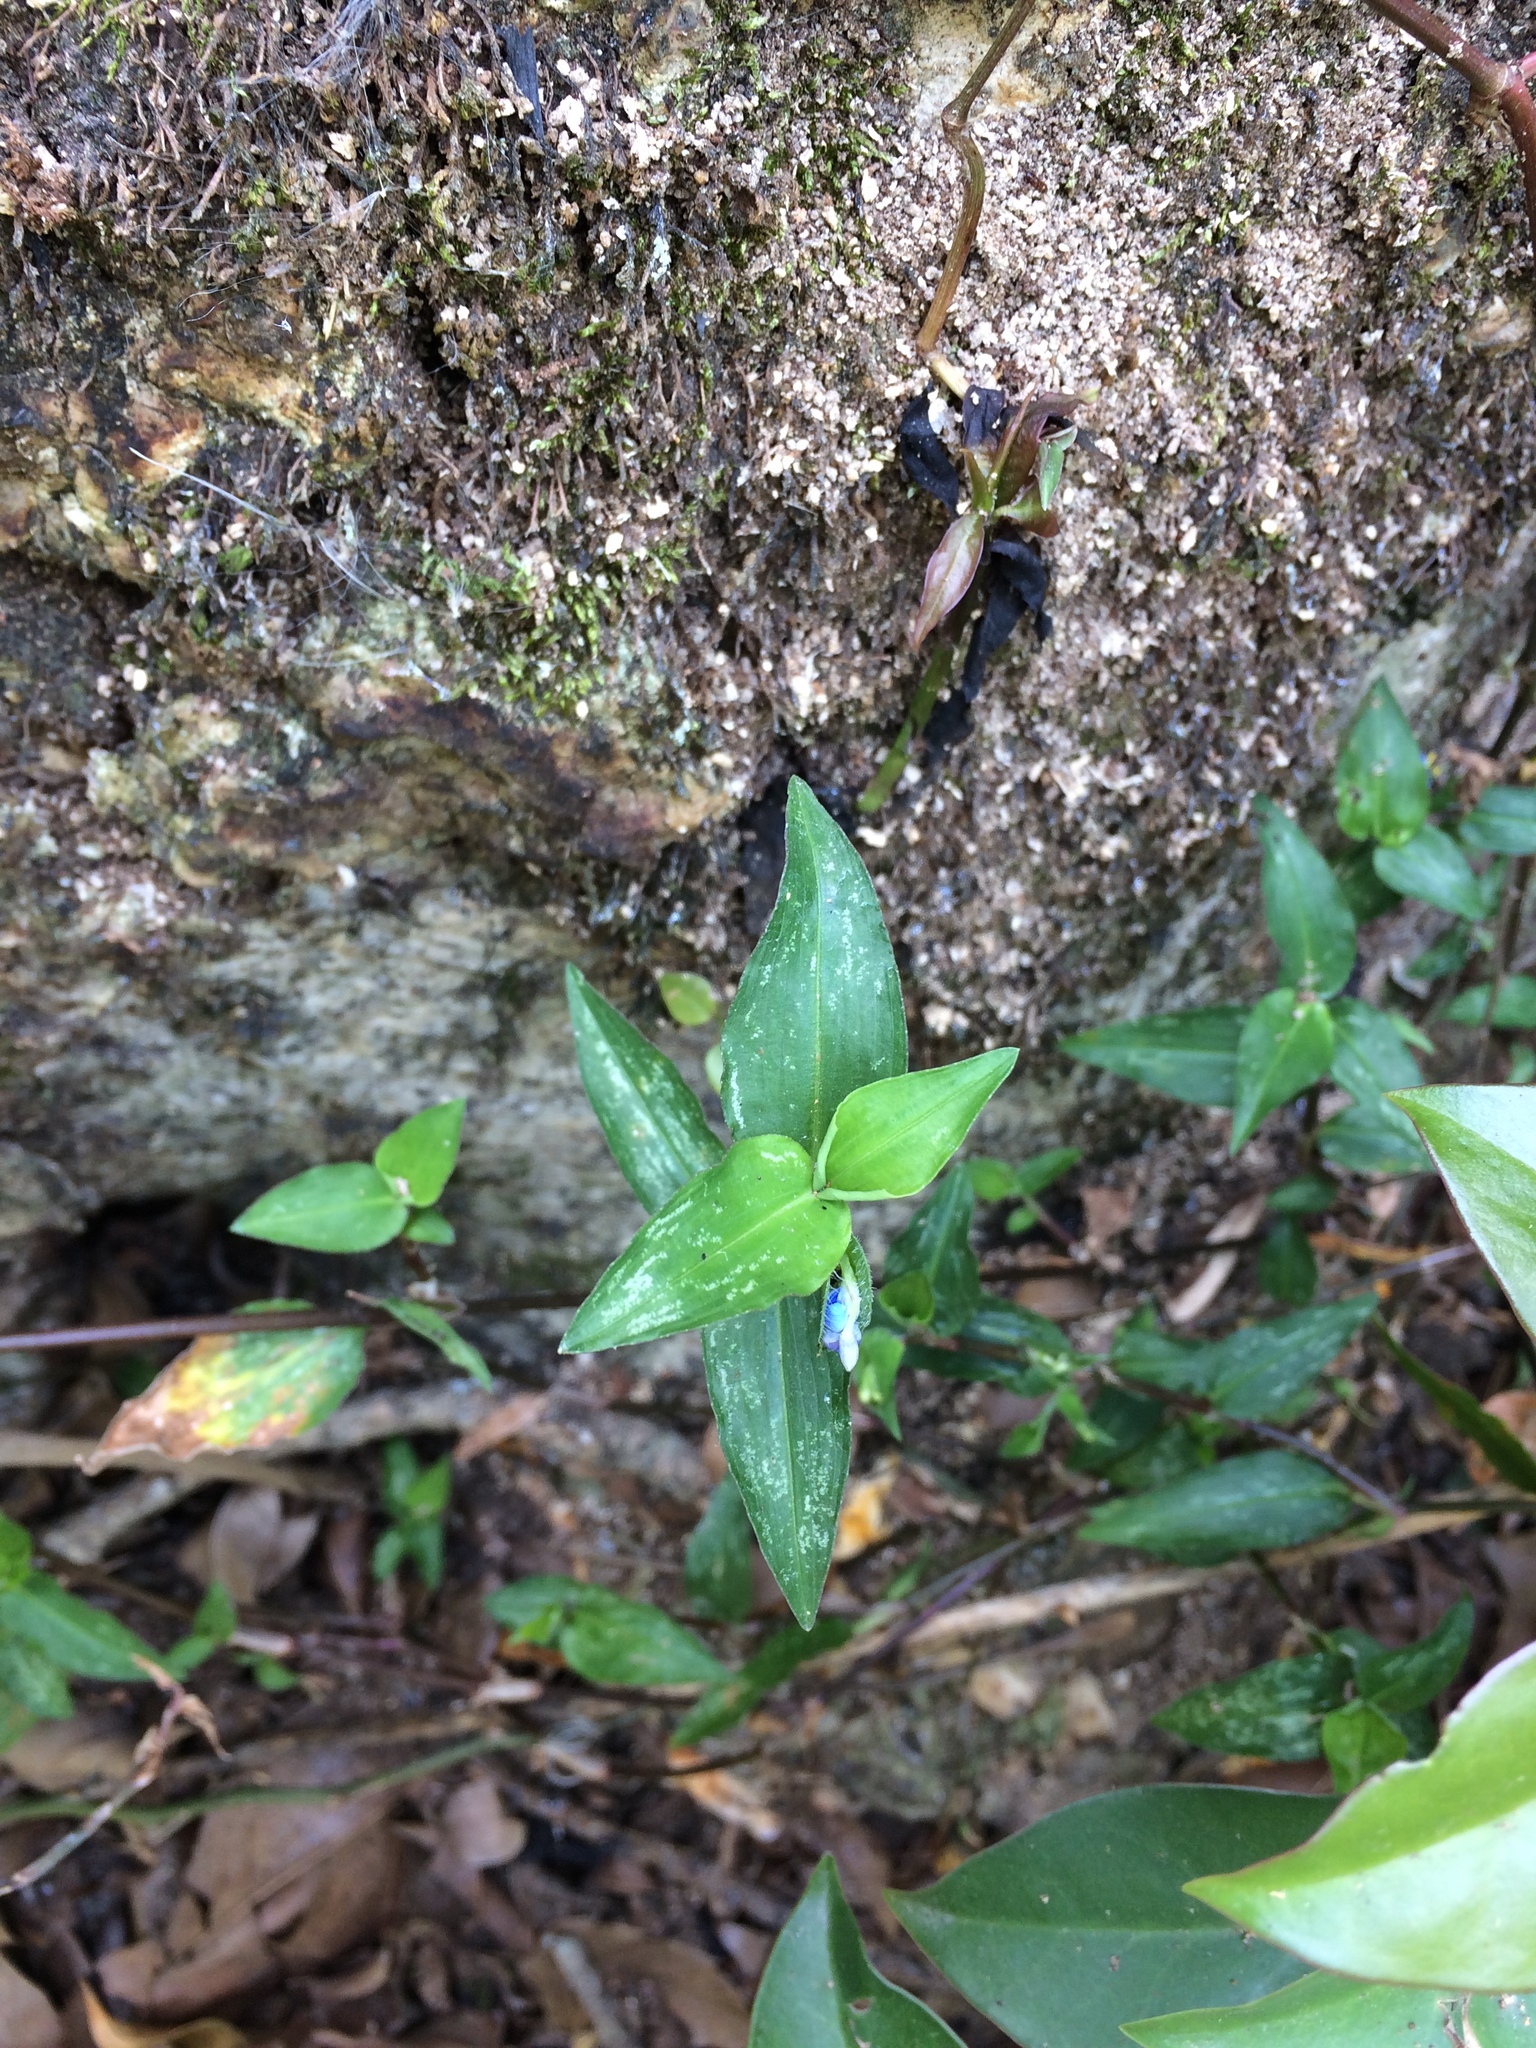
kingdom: Plantae
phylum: Tracheophyta
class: Liliopsida
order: Commelinales
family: Commelinaceae
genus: Commelina
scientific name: Commelina diffusa
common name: Climbing dayflower
